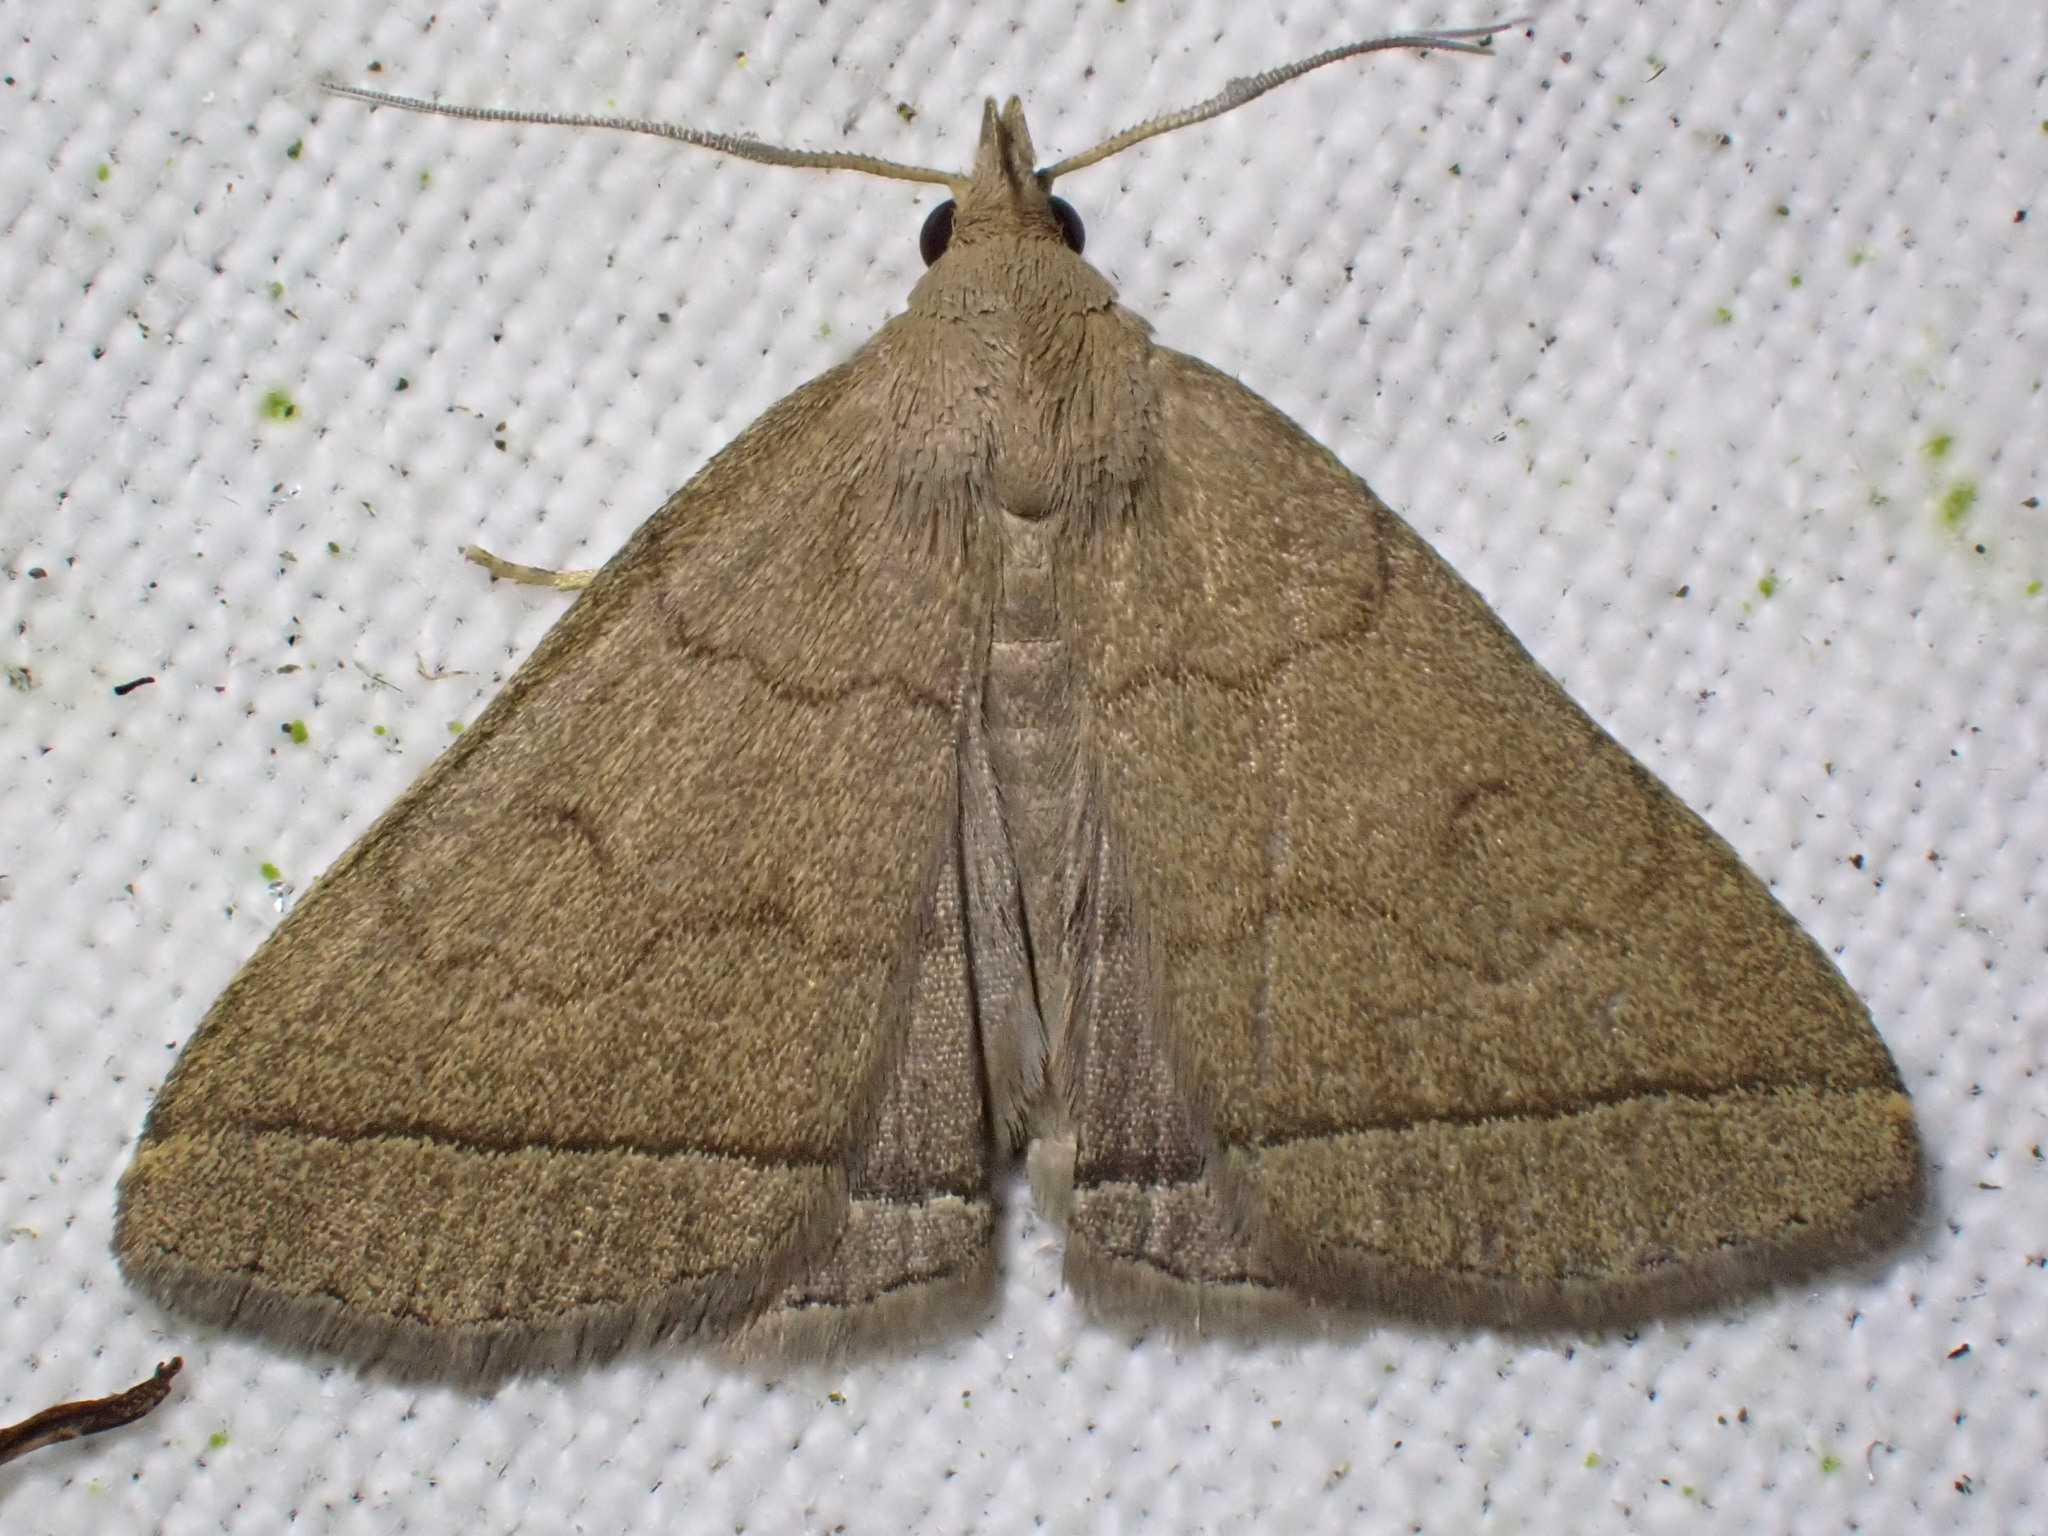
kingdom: Animalia
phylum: Arthropoda
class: Insecta
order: Lepidoptera
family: Erebidae
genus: Herminia
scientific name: Herminia tarsipennalis
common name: Fan-foot
